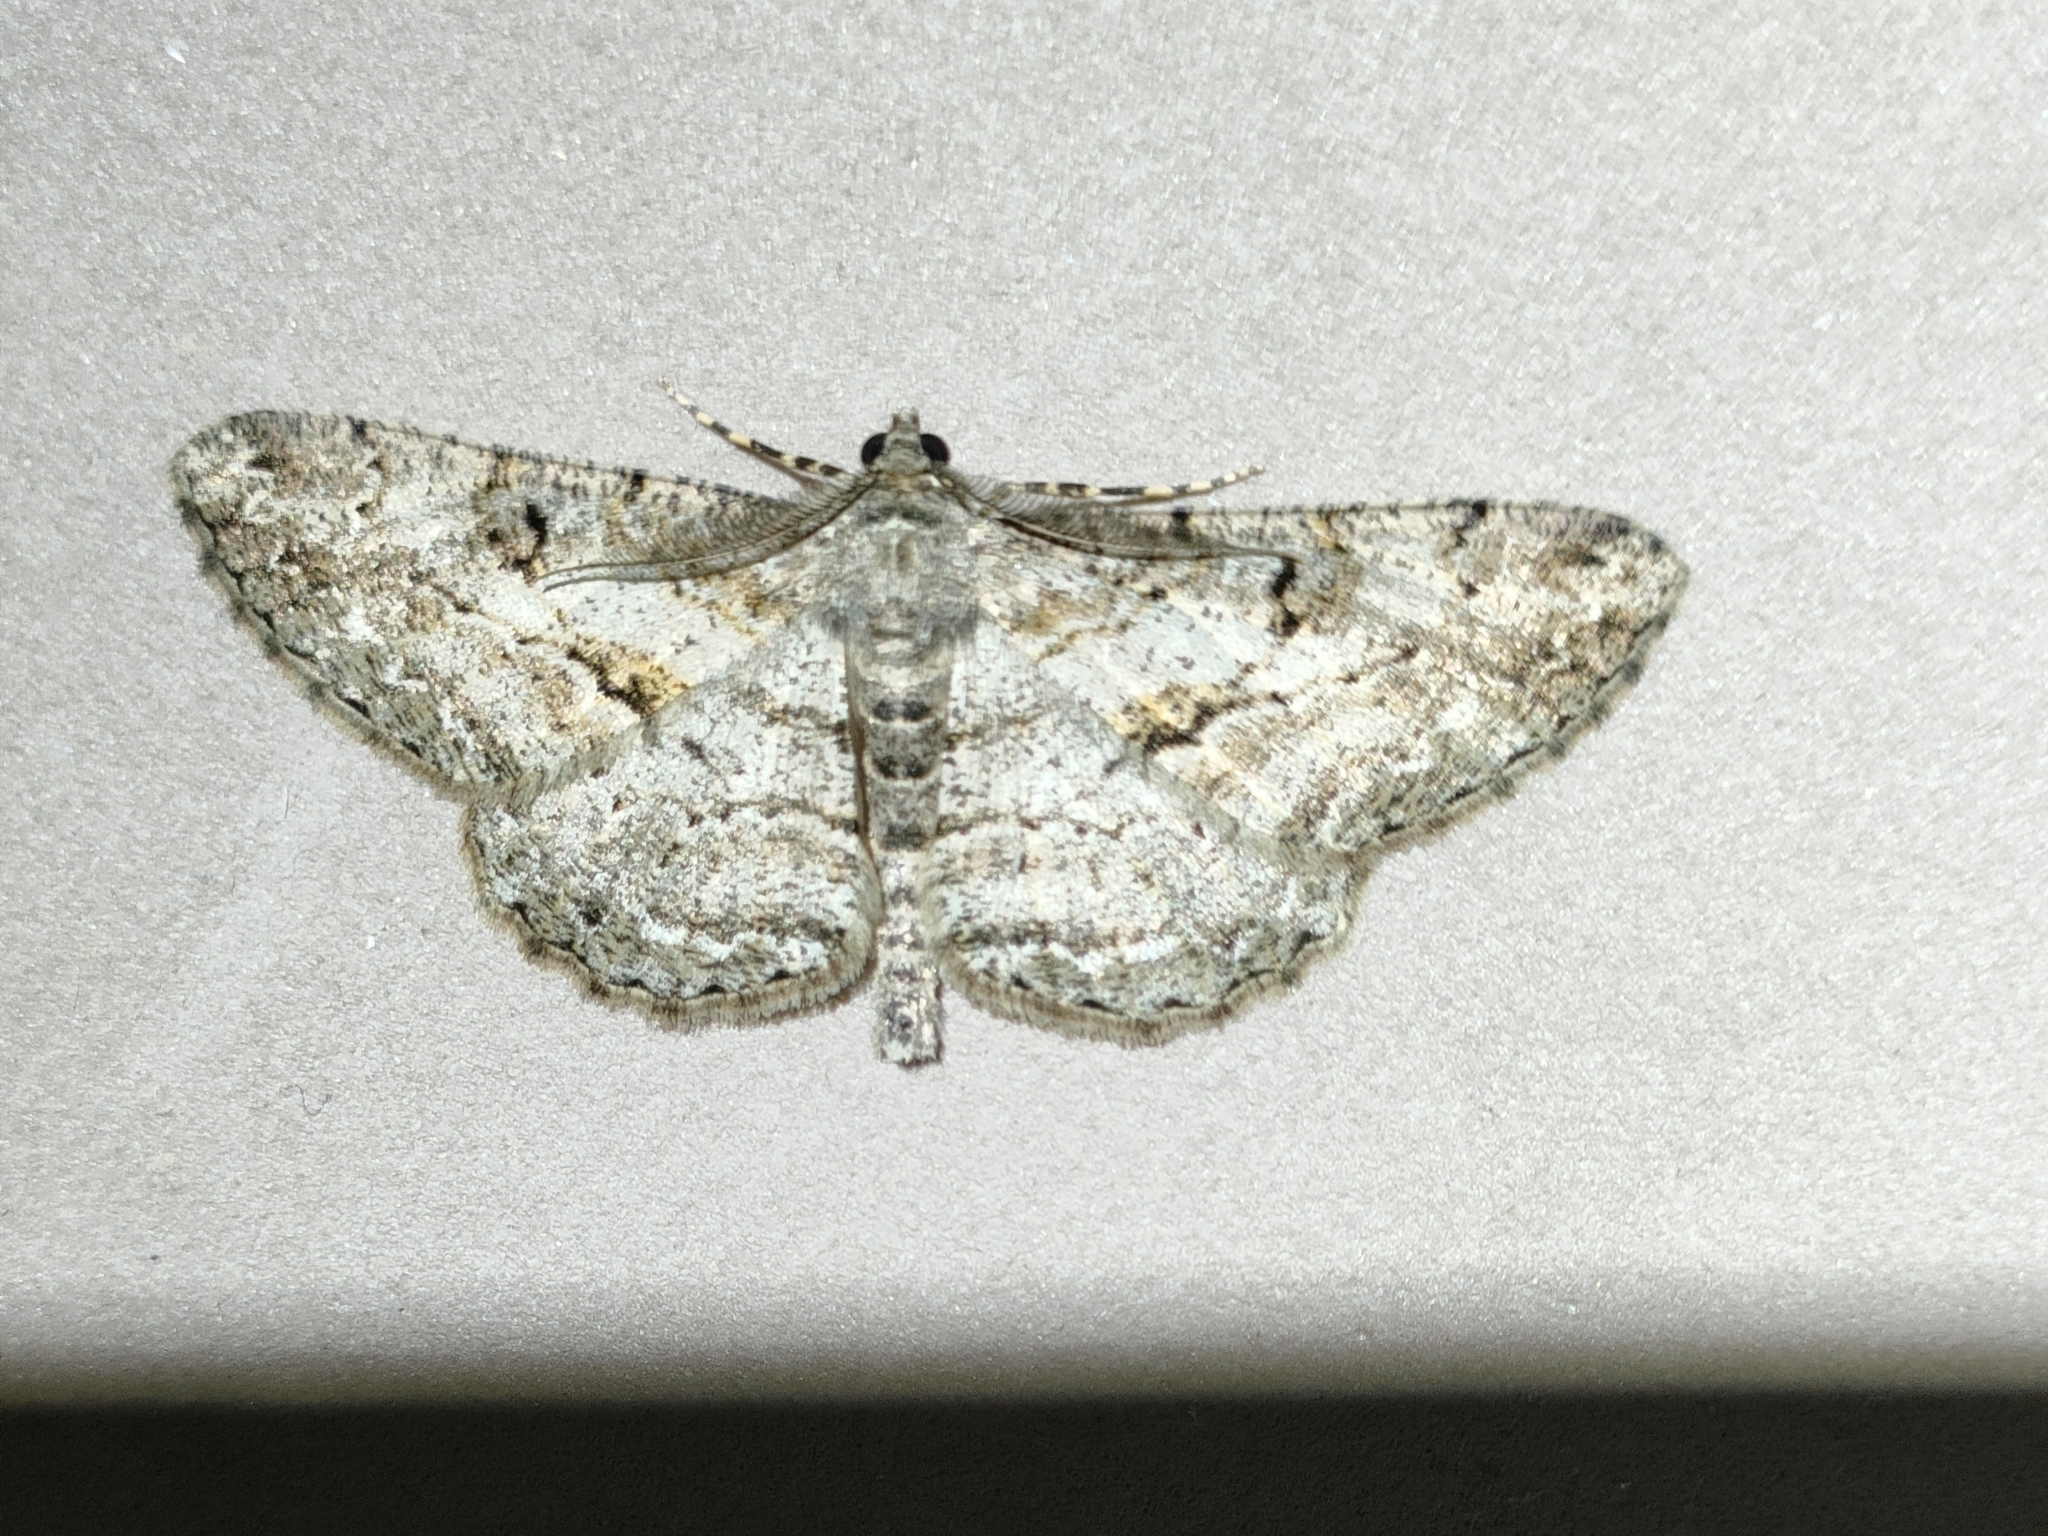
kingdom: Animalia
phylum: Arthropoda
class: Insecta
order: Lepidoptera
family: Geometridae
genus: Peribatodes
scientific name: Peribatodes rhomboidaria
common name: Willow beauty
